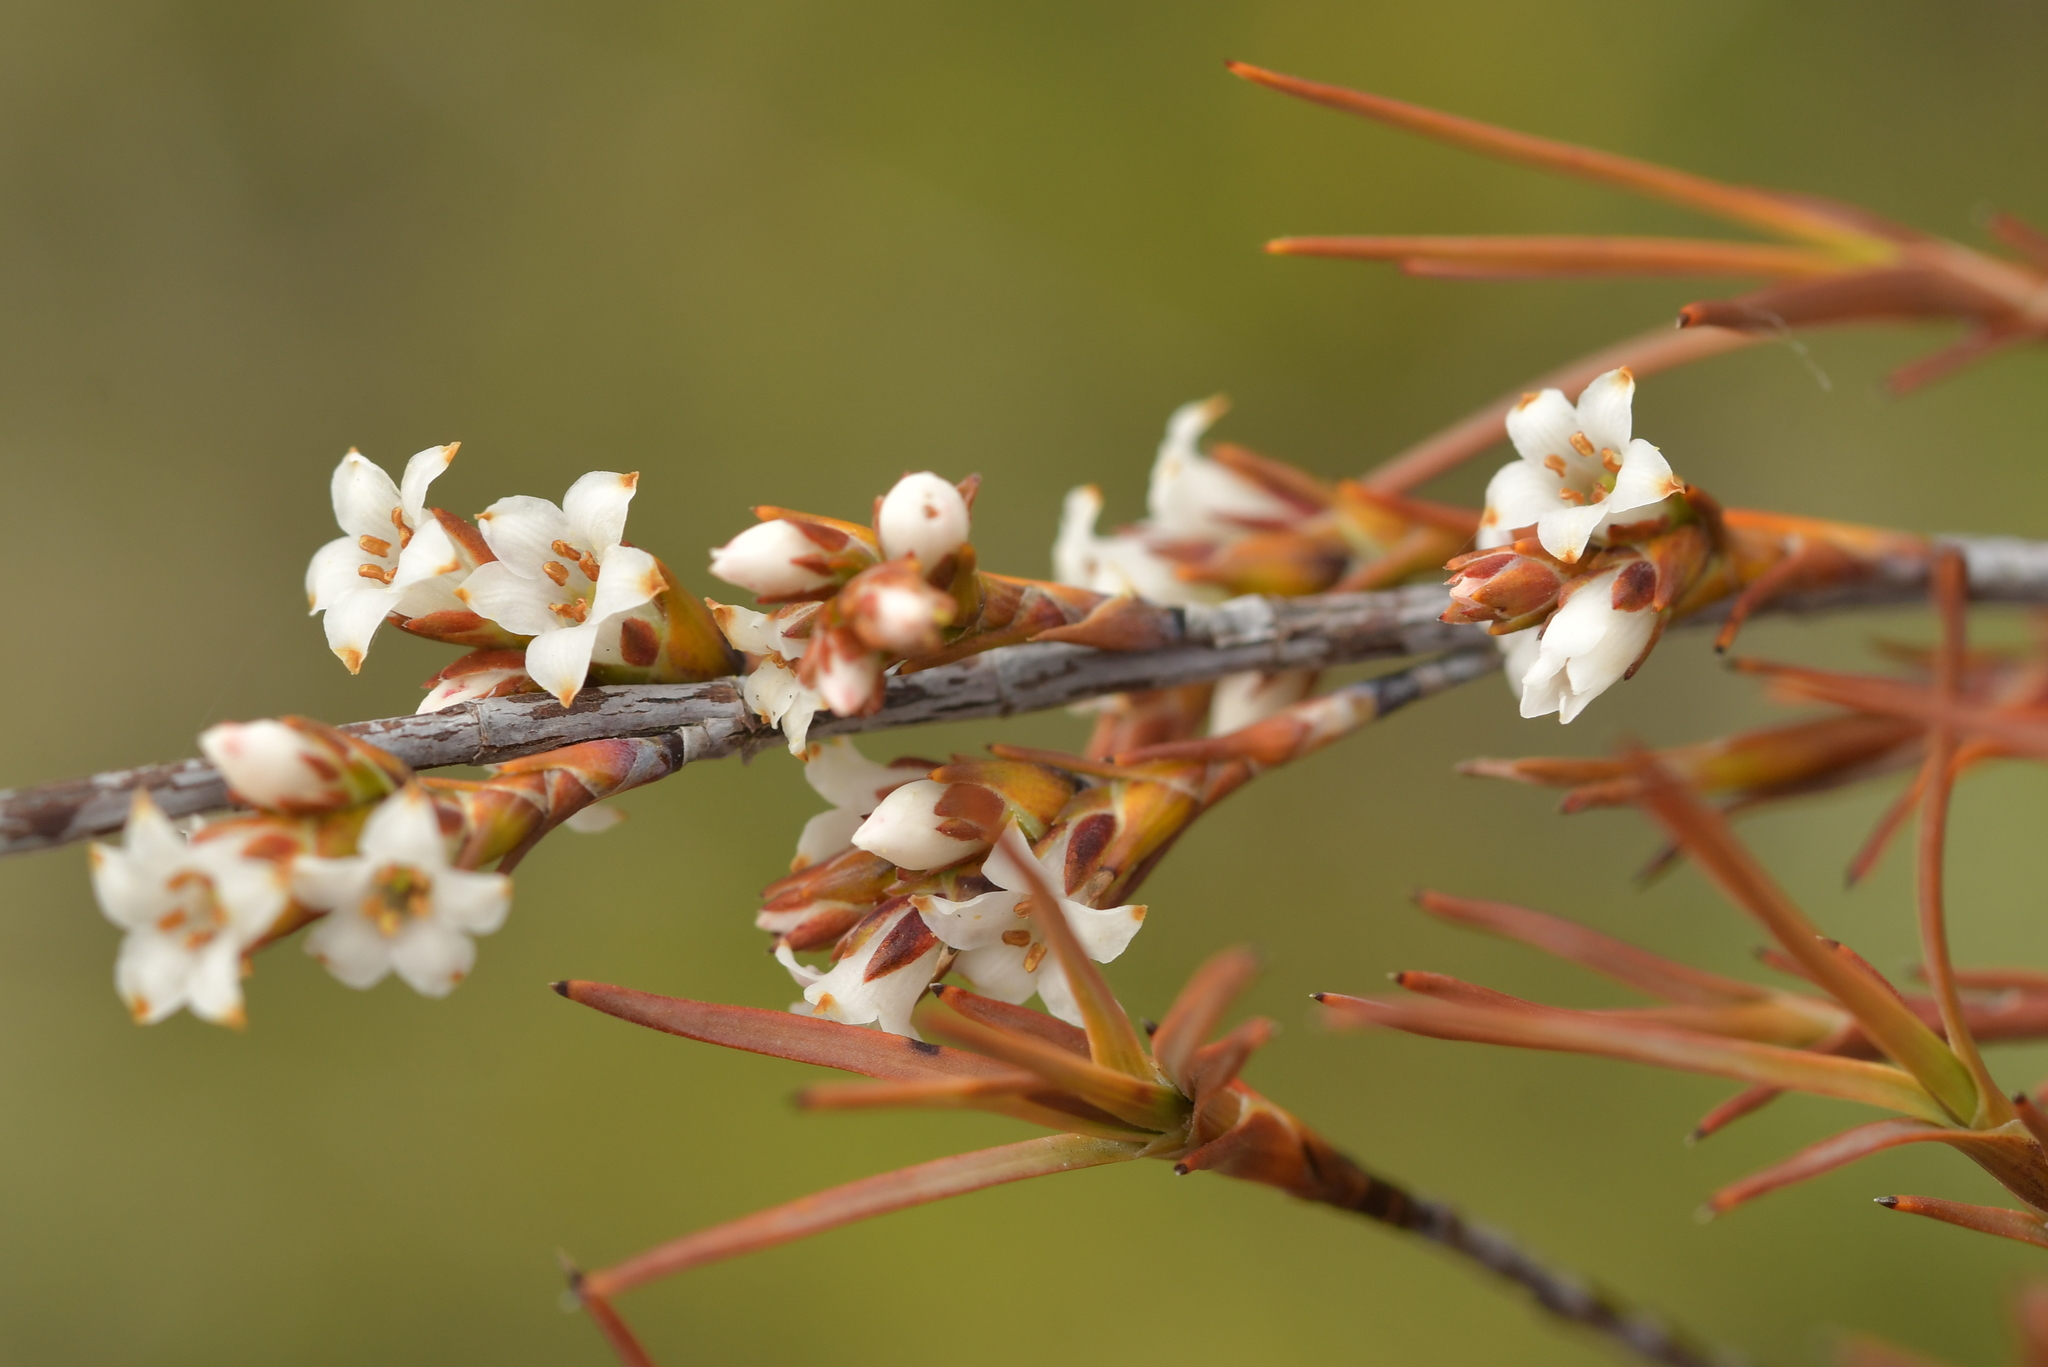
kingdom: Plantae
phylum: Tracheophyta
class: Magnoliopsida
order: Ericales
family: Ericaceae
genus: Dracophyllum
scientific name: Dracophyllum subulatum
